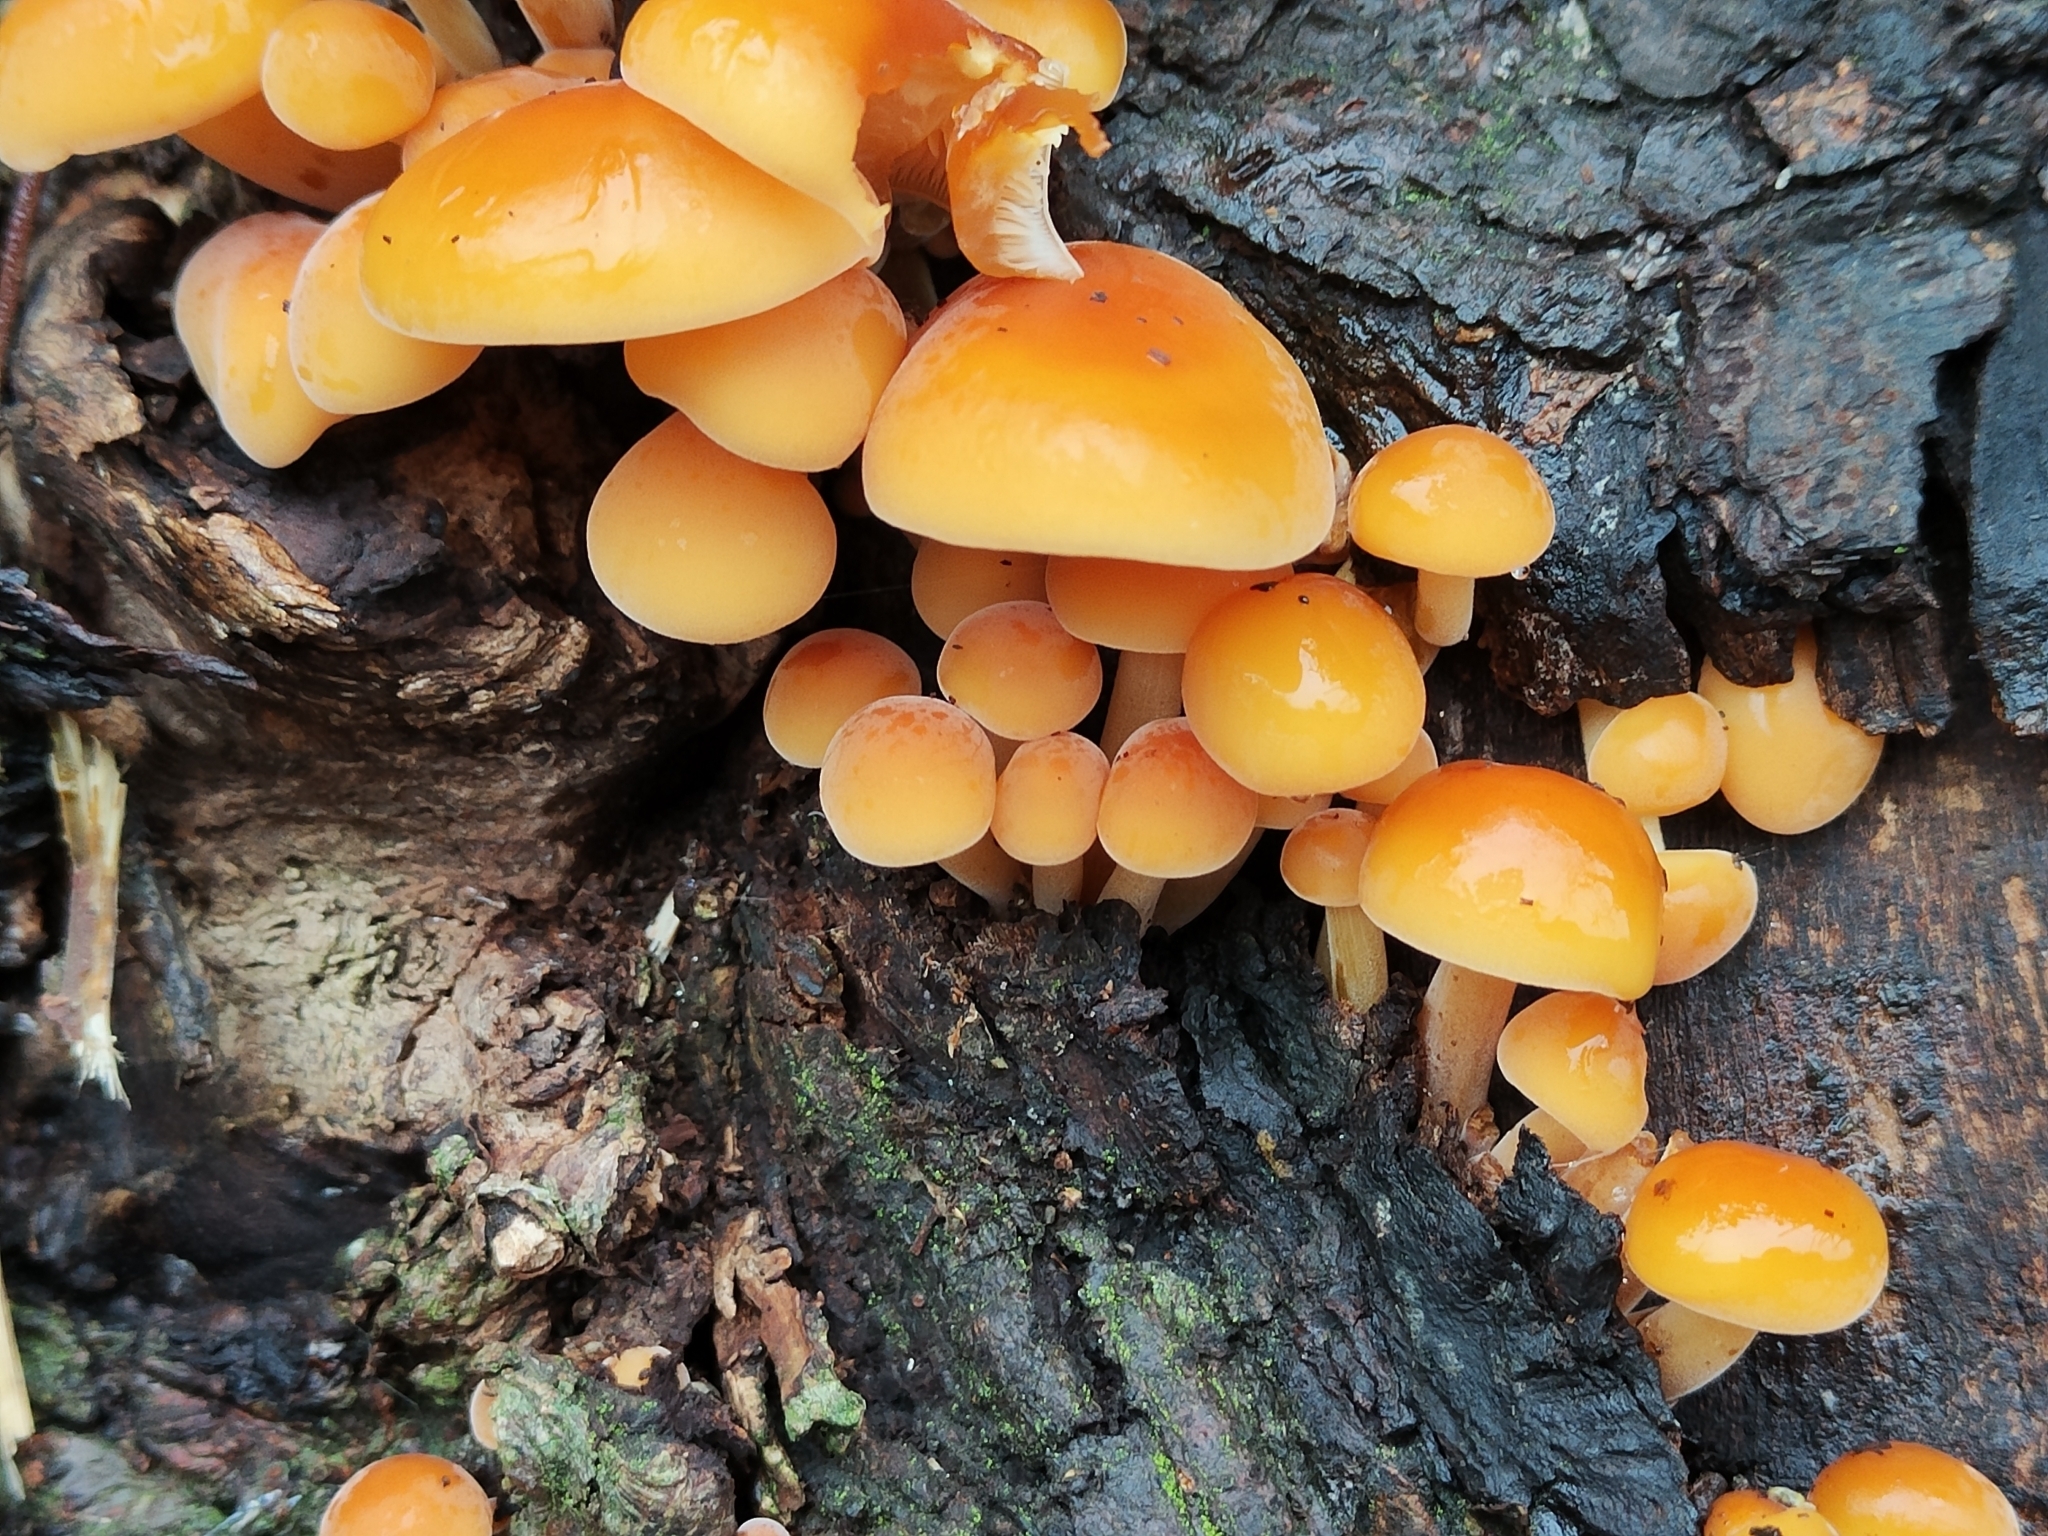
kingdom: Fungi
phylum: Basidiomycota
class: Agaricomycetes
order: Agaricales
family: Physalacriaceae
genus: Flammulina
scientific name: Flammulina
